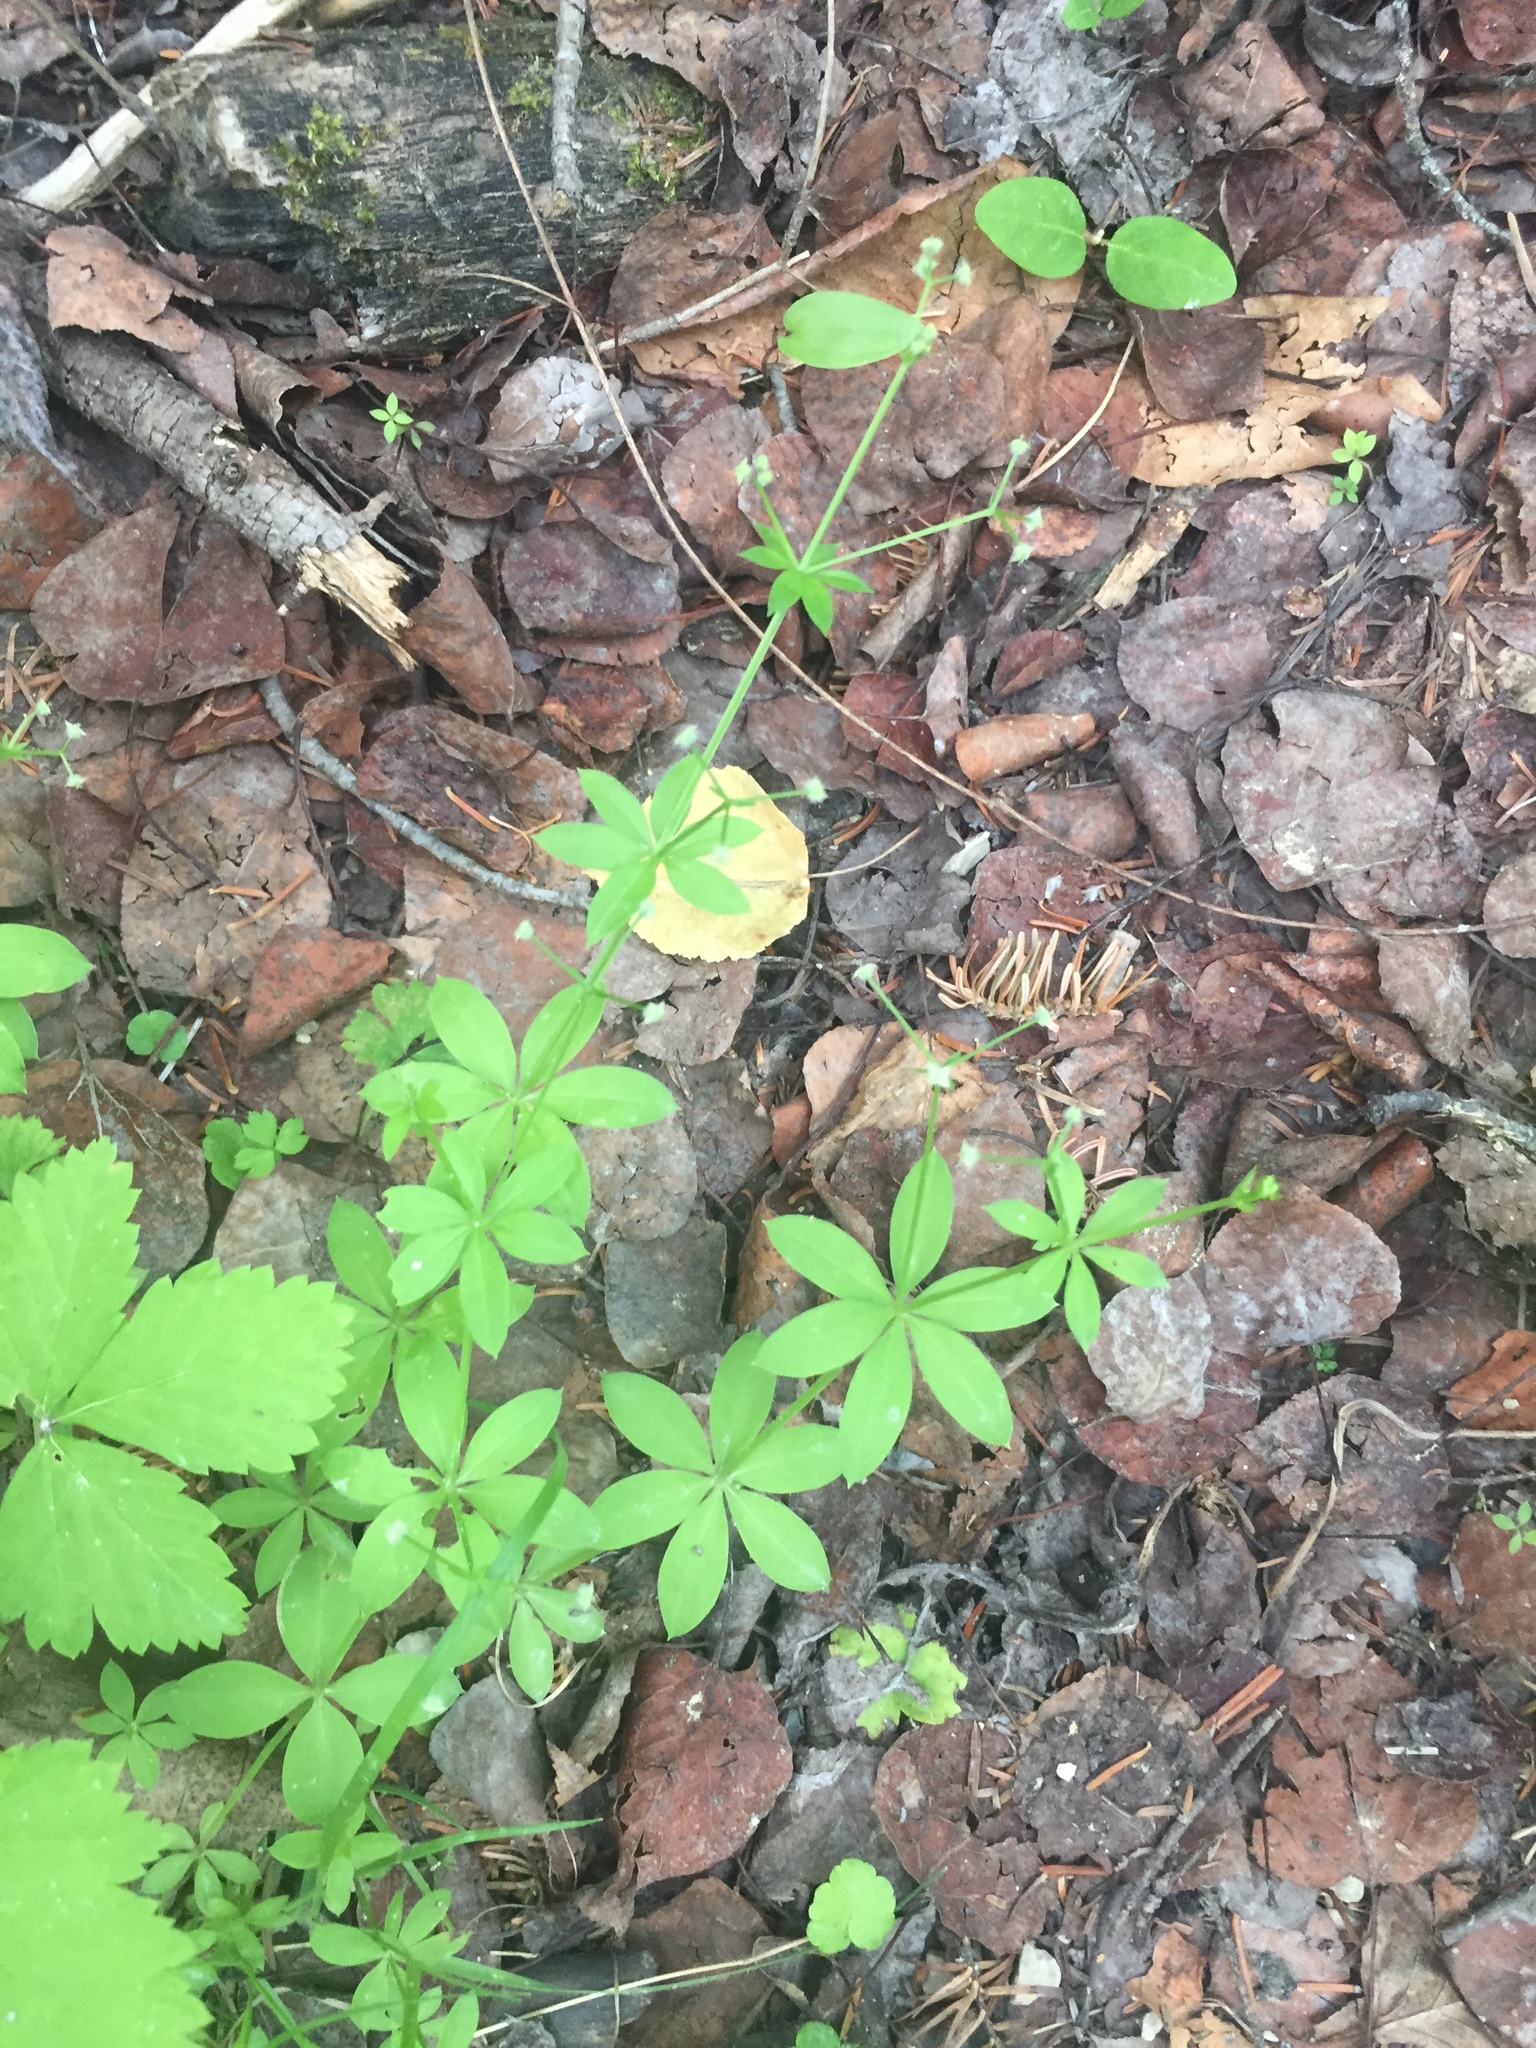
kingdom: Plantae
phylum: Tracheophyta
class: Magnoliopsida
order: Gentianales
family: Rubiaceae
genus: Galium
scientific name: Galium triflorum
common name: Fragrant bedstraw
